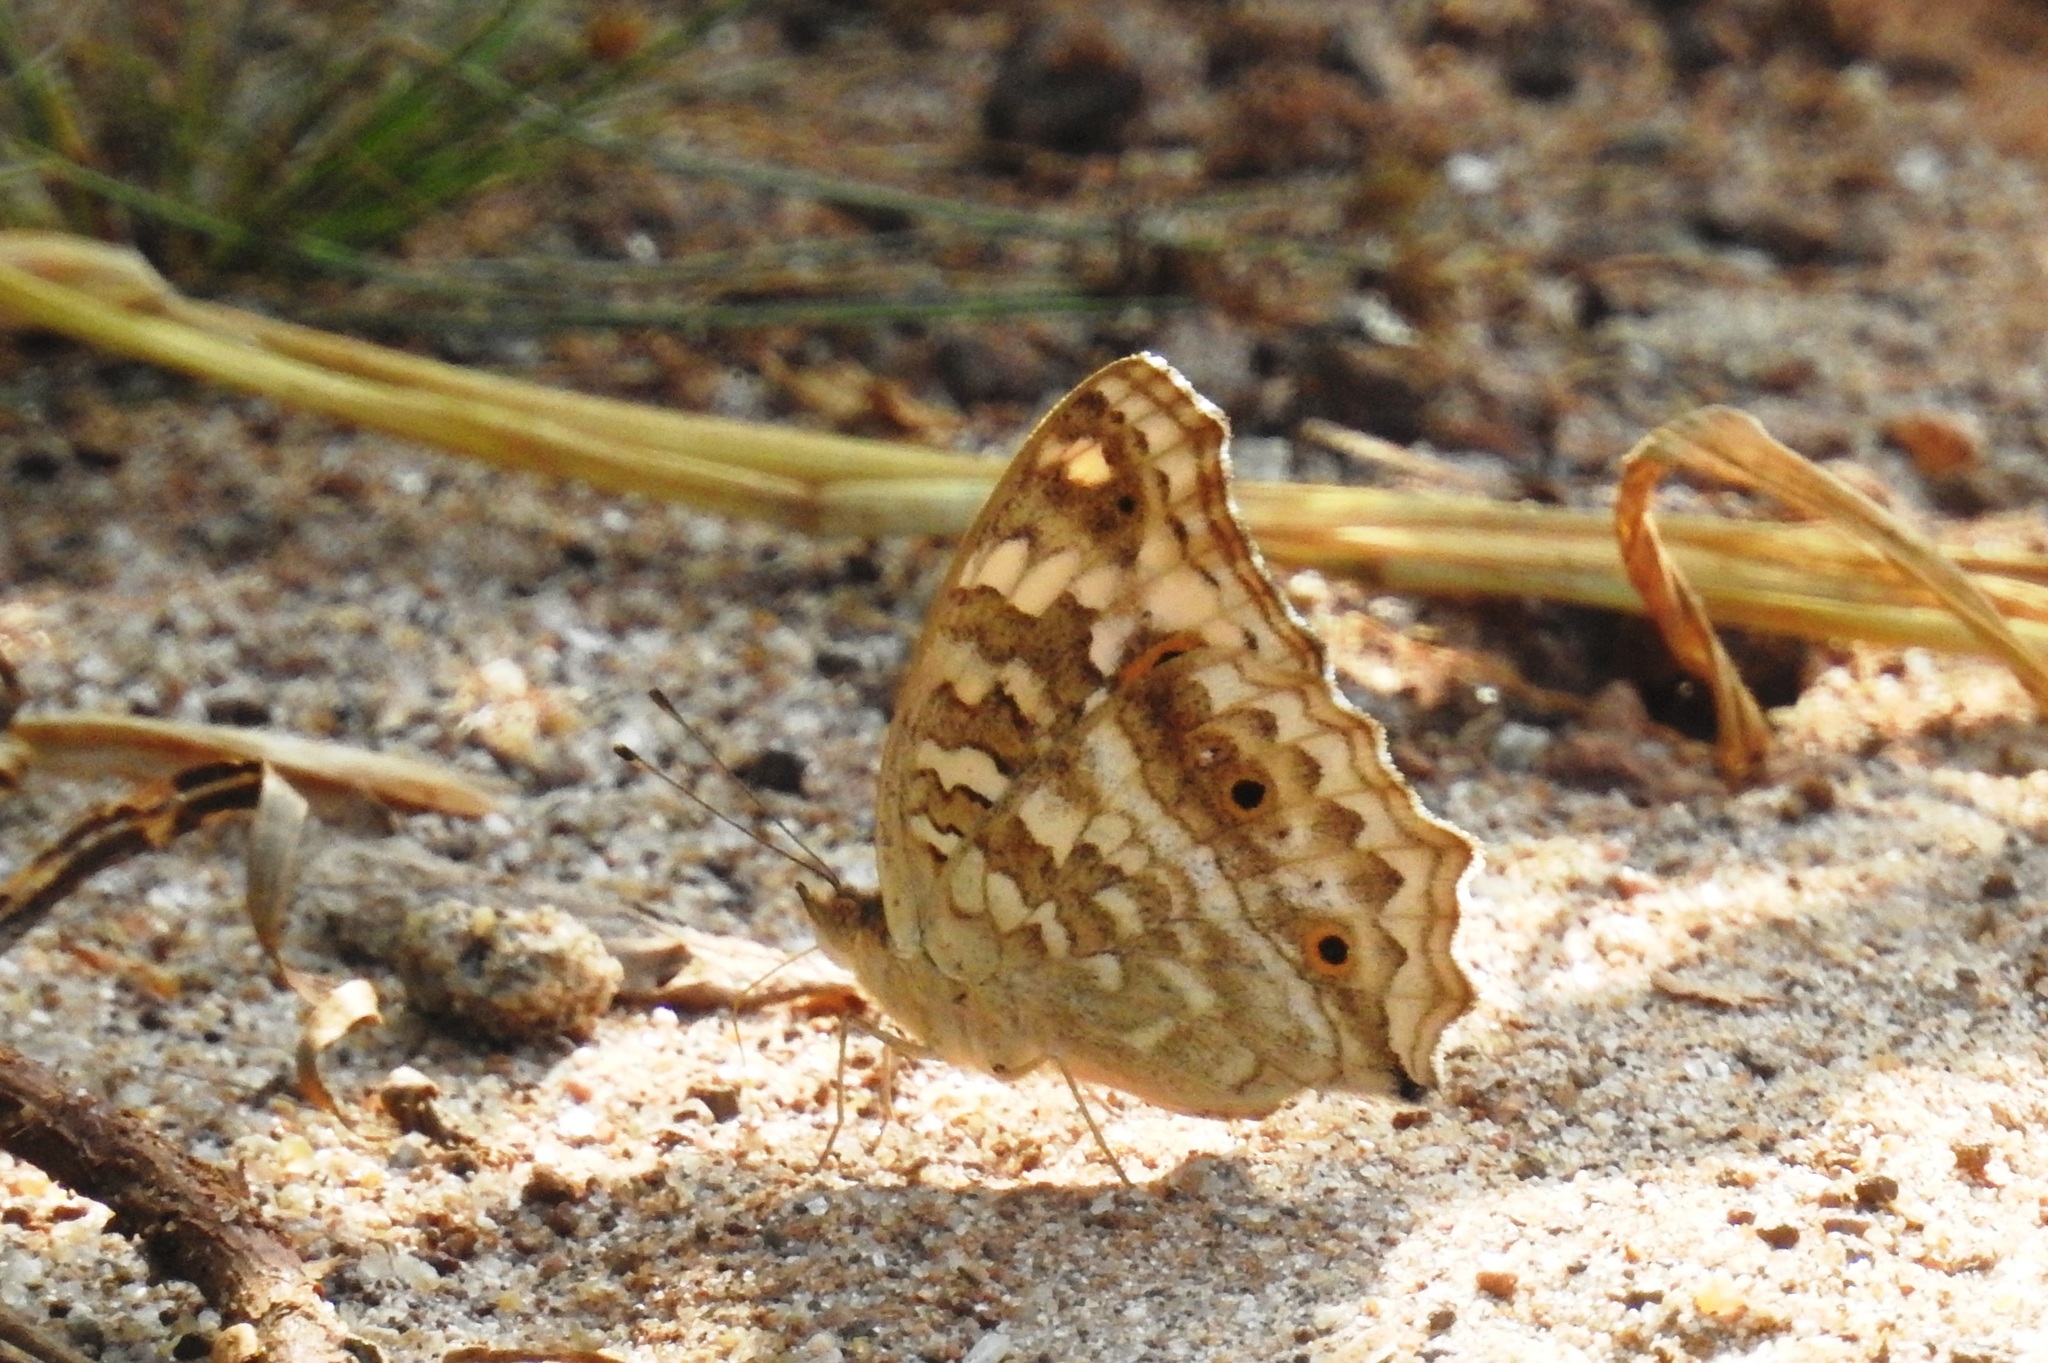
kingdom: Animalia
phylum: Arthropoda
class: Insecta
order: Lepidoptera
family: Nymphalidae
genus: Junonia
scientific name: Junonia lemonias
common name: Lemon pansy
